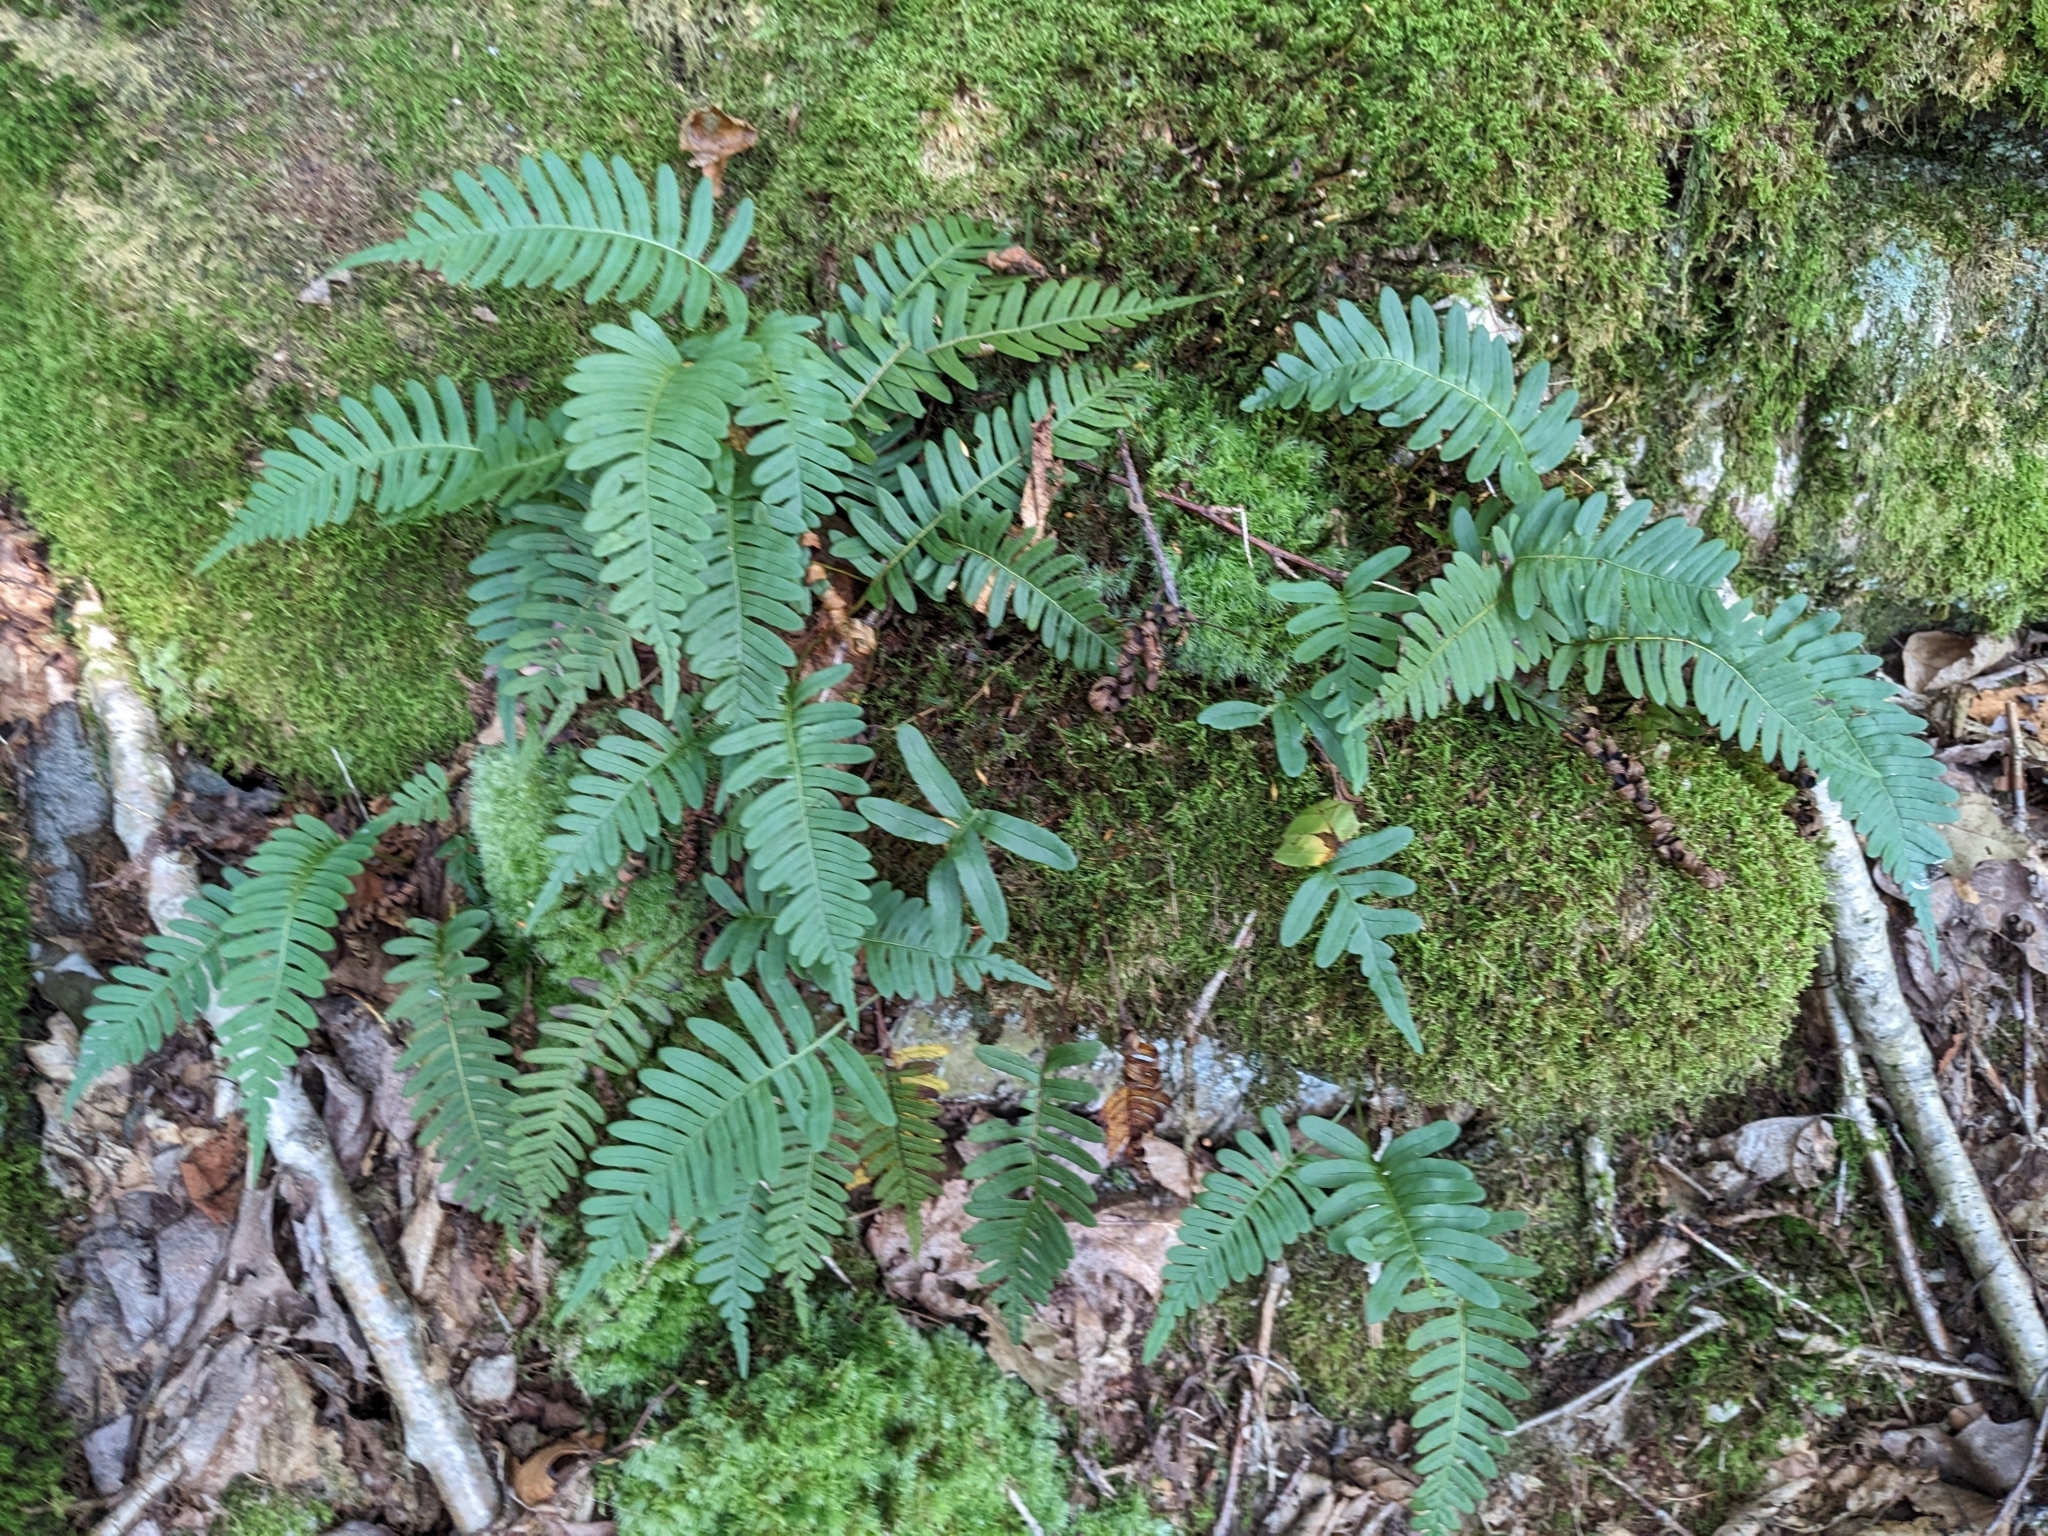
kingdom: Plantae
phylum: Tracheophyta
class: Polypodiopsida
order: Polypodiales
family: Polypodiaceae
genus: Polypodium
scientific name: Polypodium appalachianum
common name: Appalachian polypody
